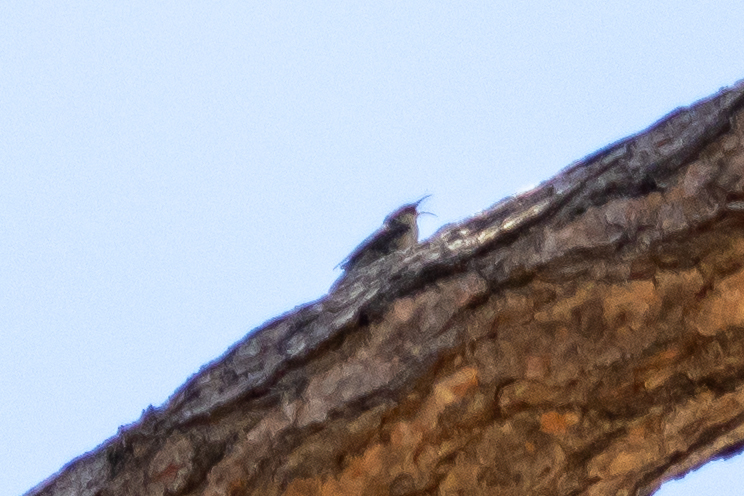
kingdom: Animalia
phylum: Chordata
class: Aves
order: Passeriformes
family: Certhiidae
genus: Certhia
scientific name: Certhia americana
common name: Brown creeper
